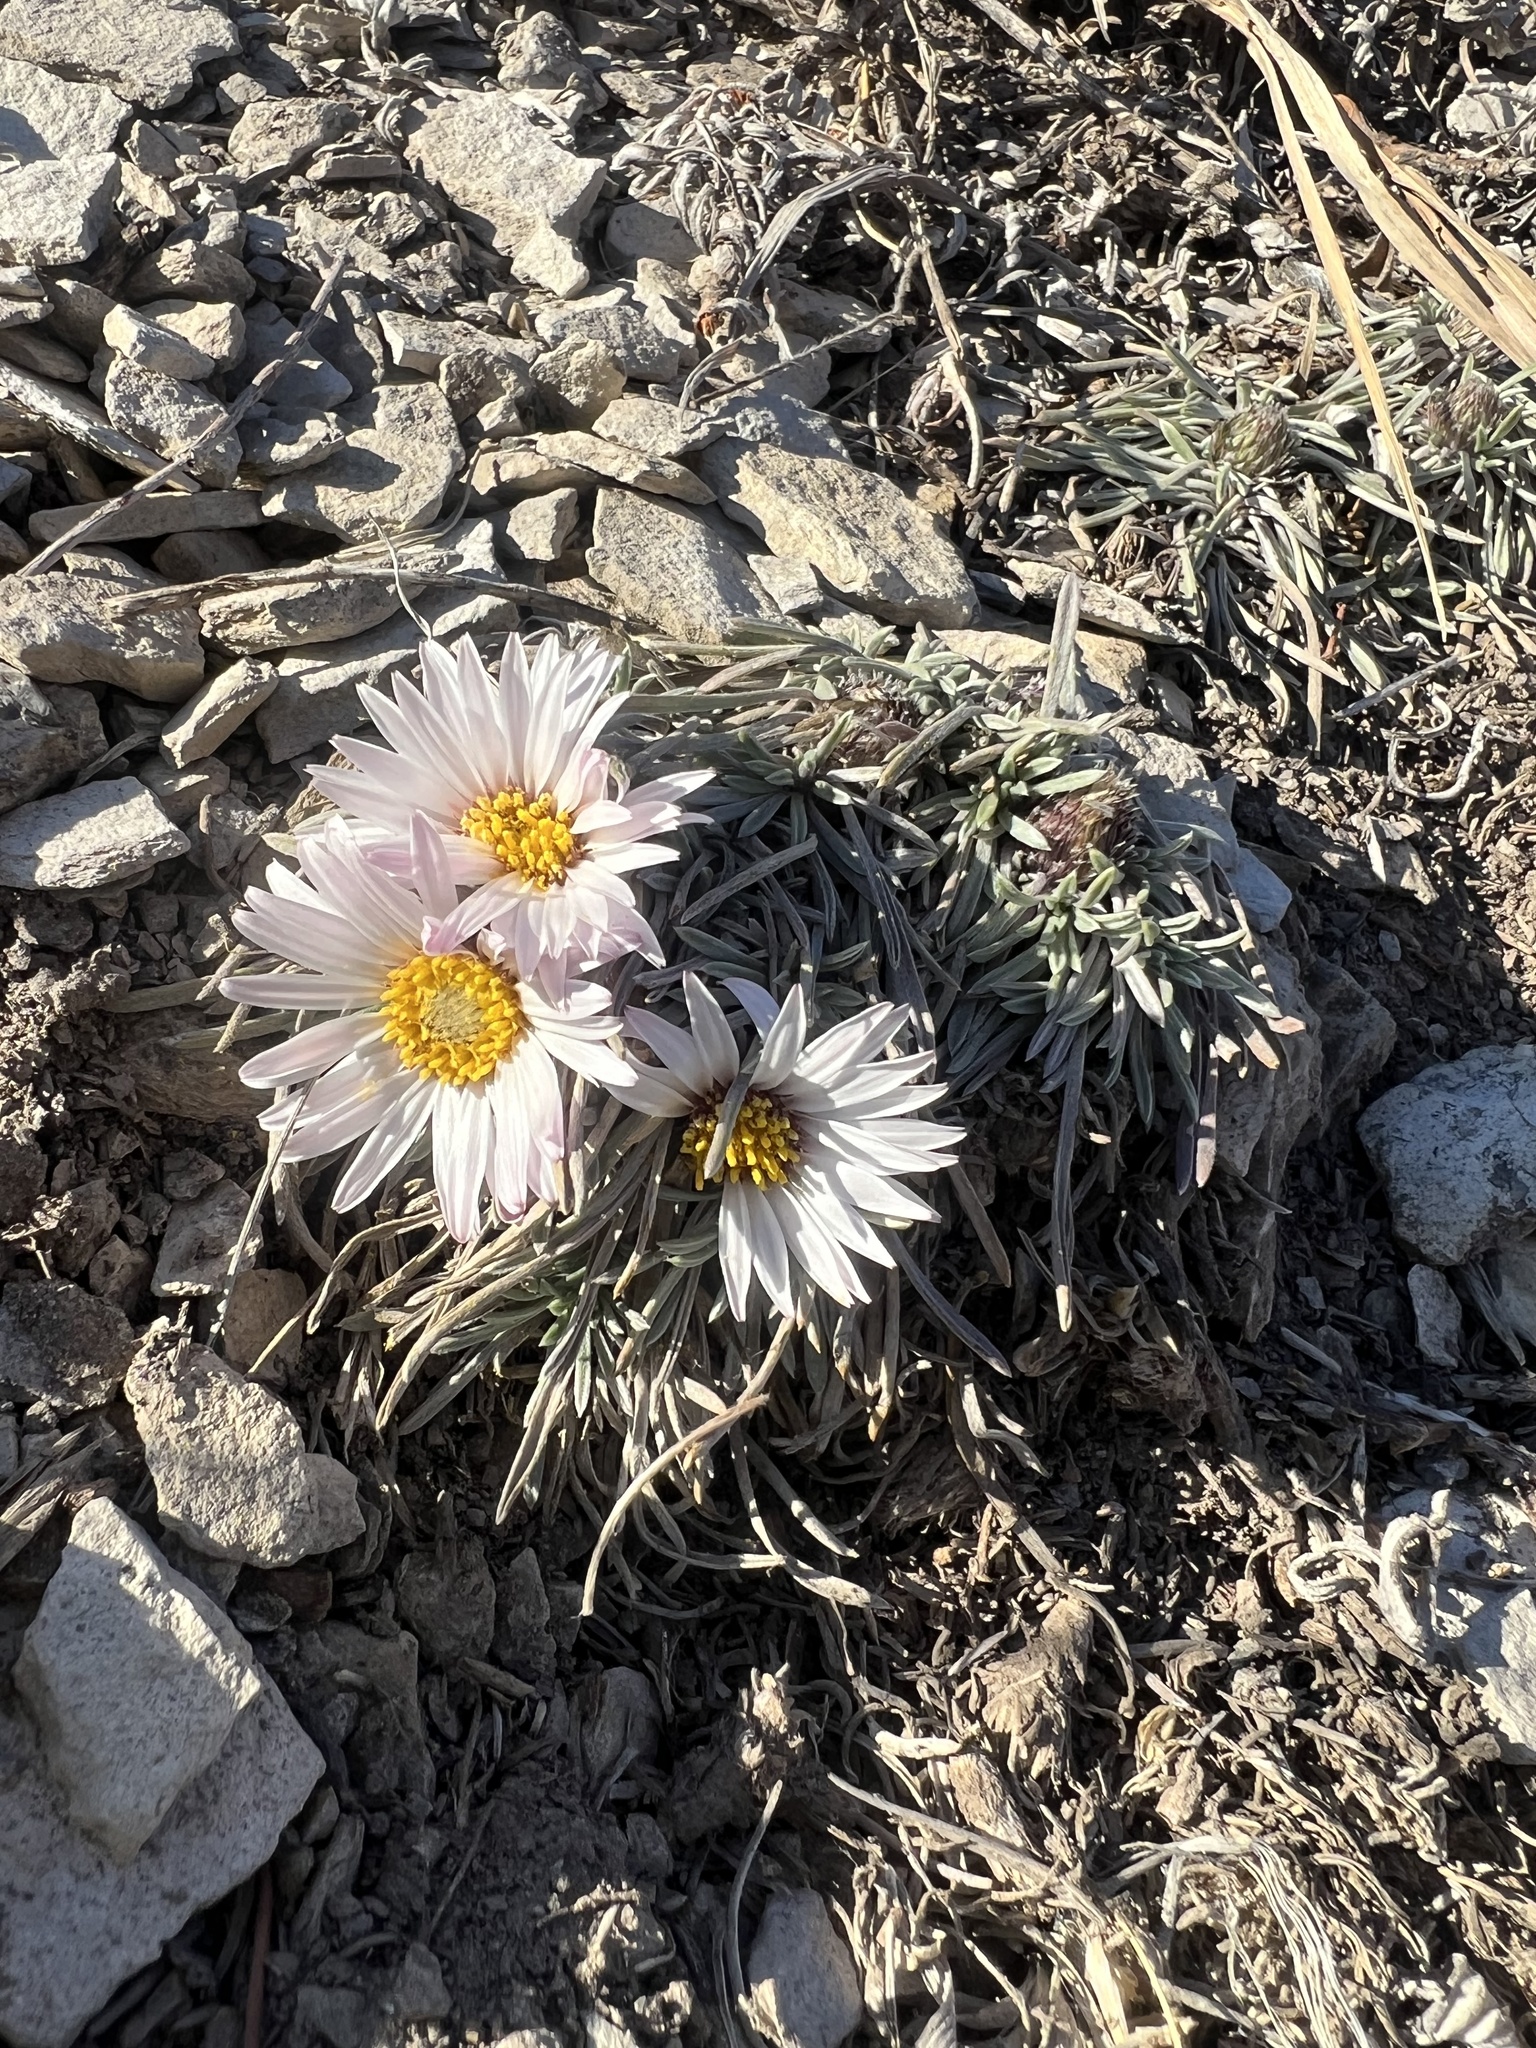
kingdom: Plantae
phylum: Tracheophyta
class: Magnoliopsida
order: Asterales
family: Asteraceae
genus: Townsendia
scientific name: Townsendia hookeri
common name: Hooker's townsend daisy
